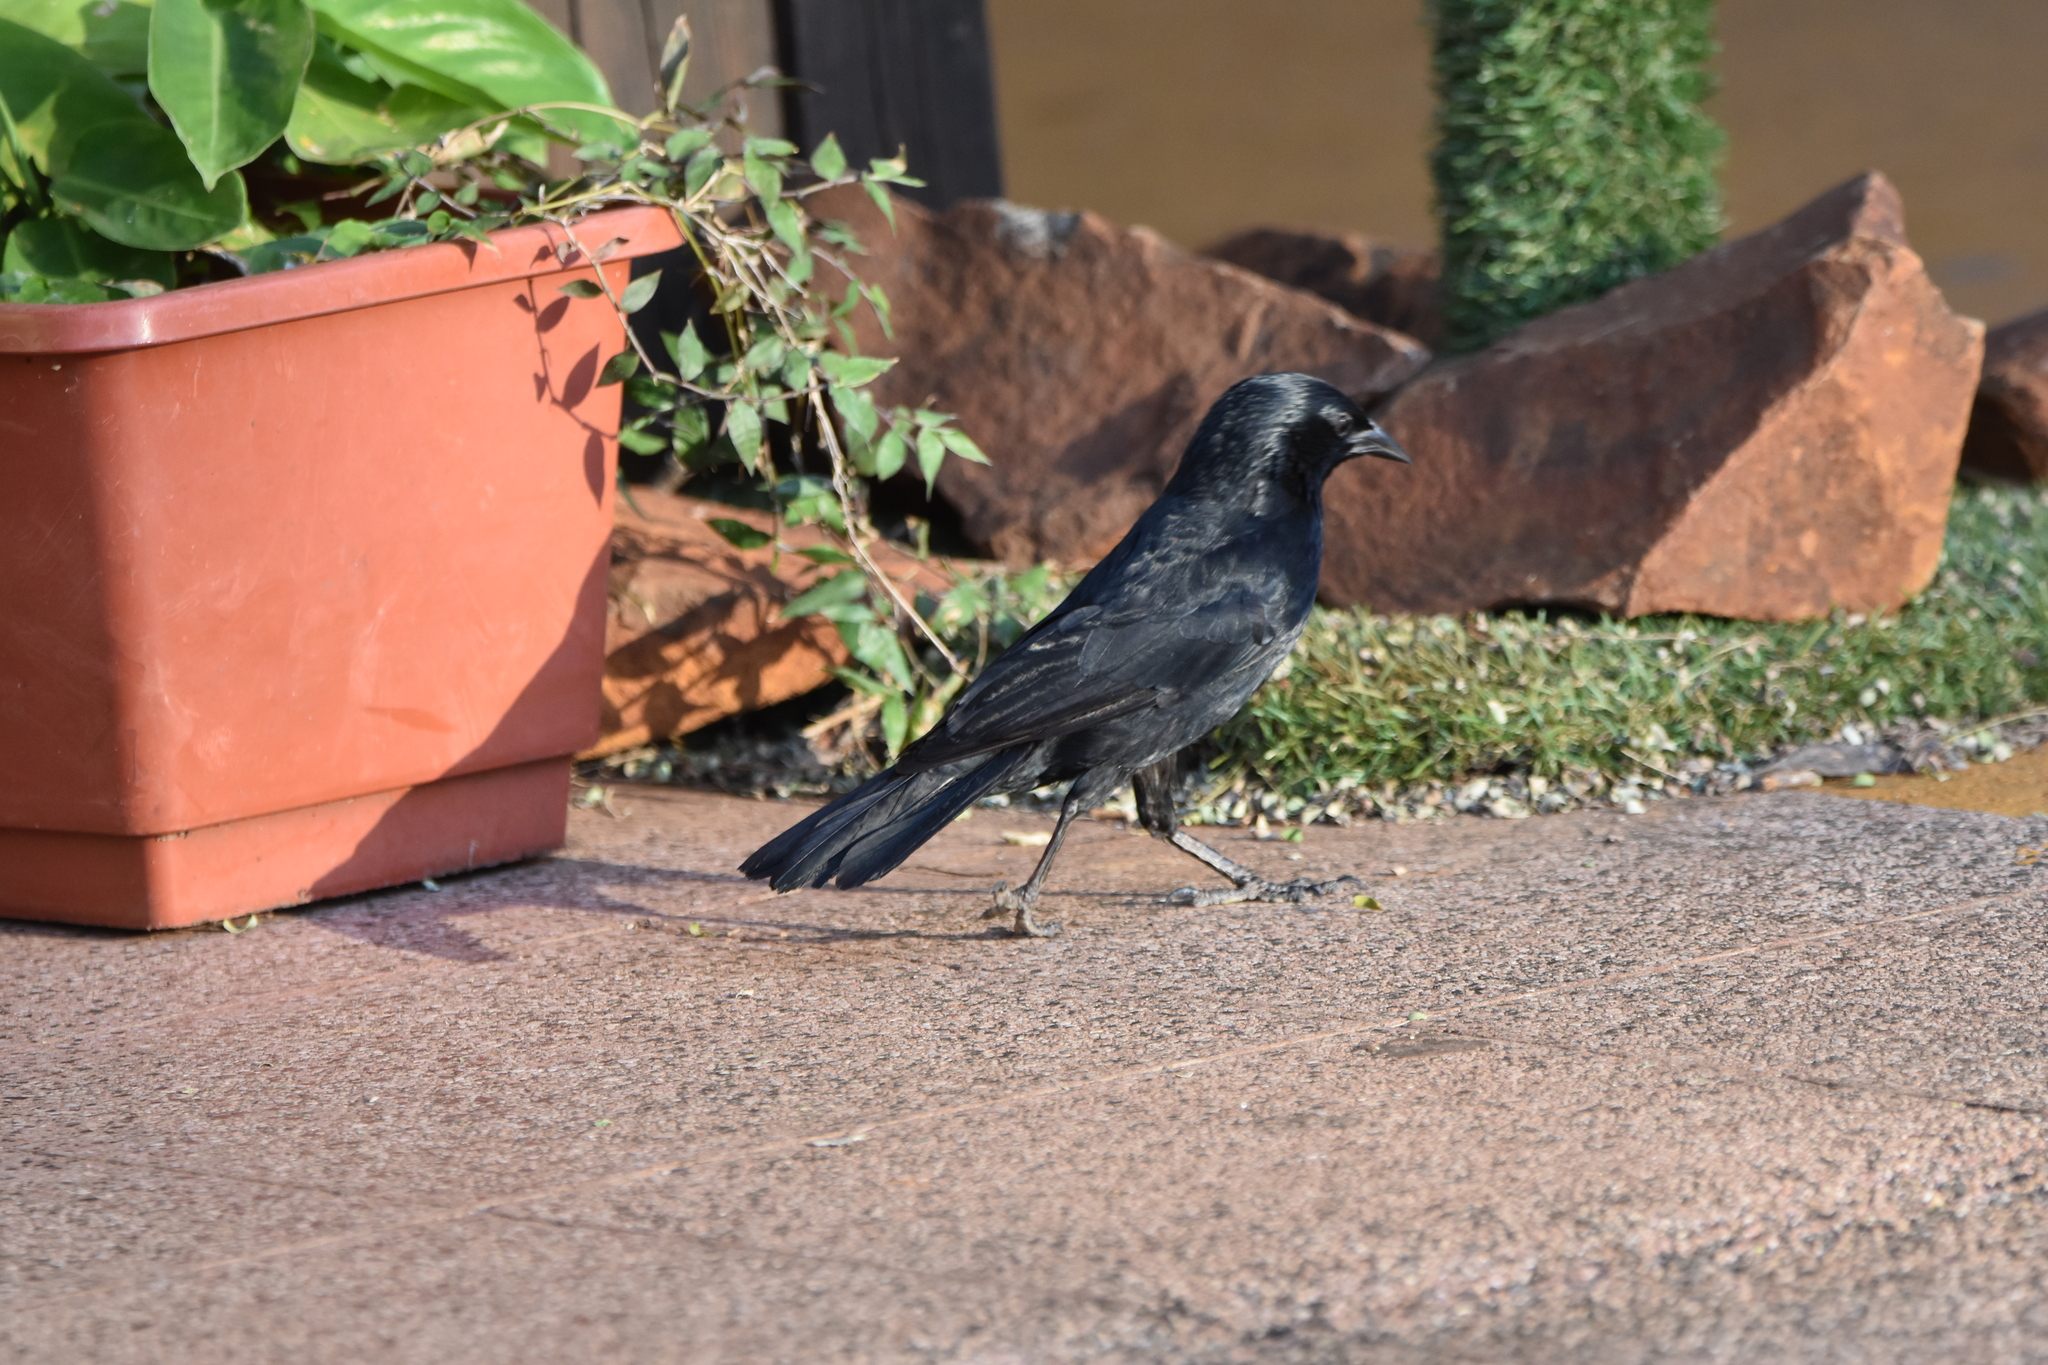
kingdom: Animalia
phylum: Chordata
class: Aves
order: Passeriformes
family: Icteridae
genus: Gnorimopsar
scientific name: Gnorimopsar chopi
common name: Chopi blackbird
